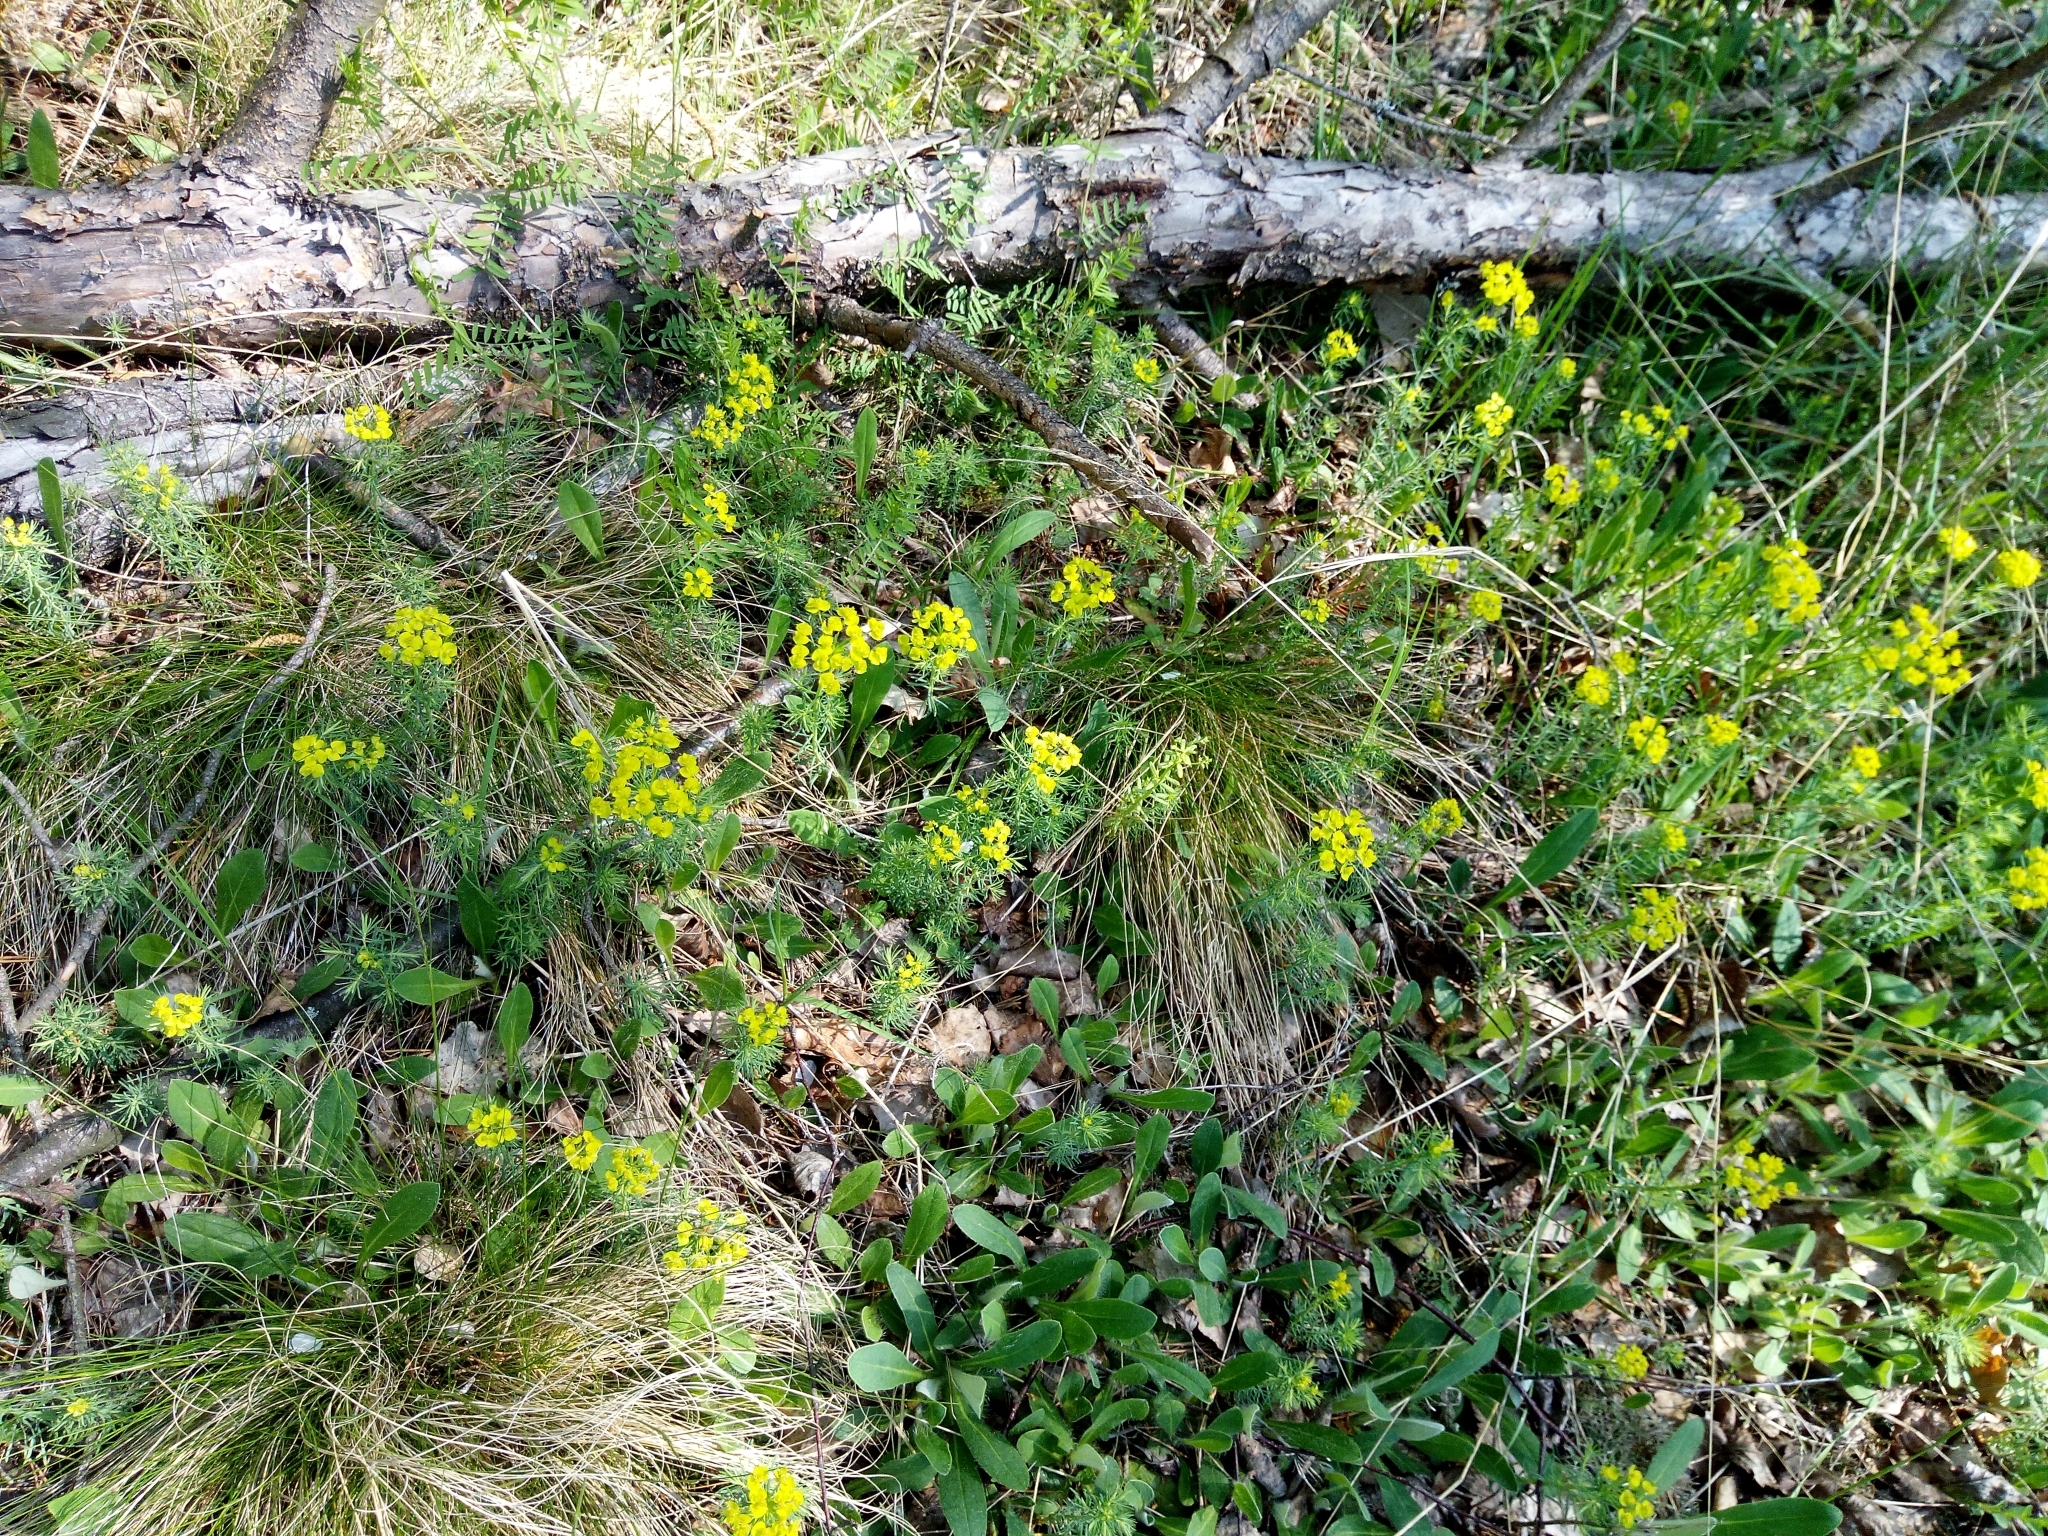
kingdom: Plantae
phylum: Tracheophyta
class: Magnoliopsida
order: Malpighiales
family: Euphorbiaceae
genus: Euphorbia
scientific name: Euphorbia cyparissias
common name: Cypress spurge
